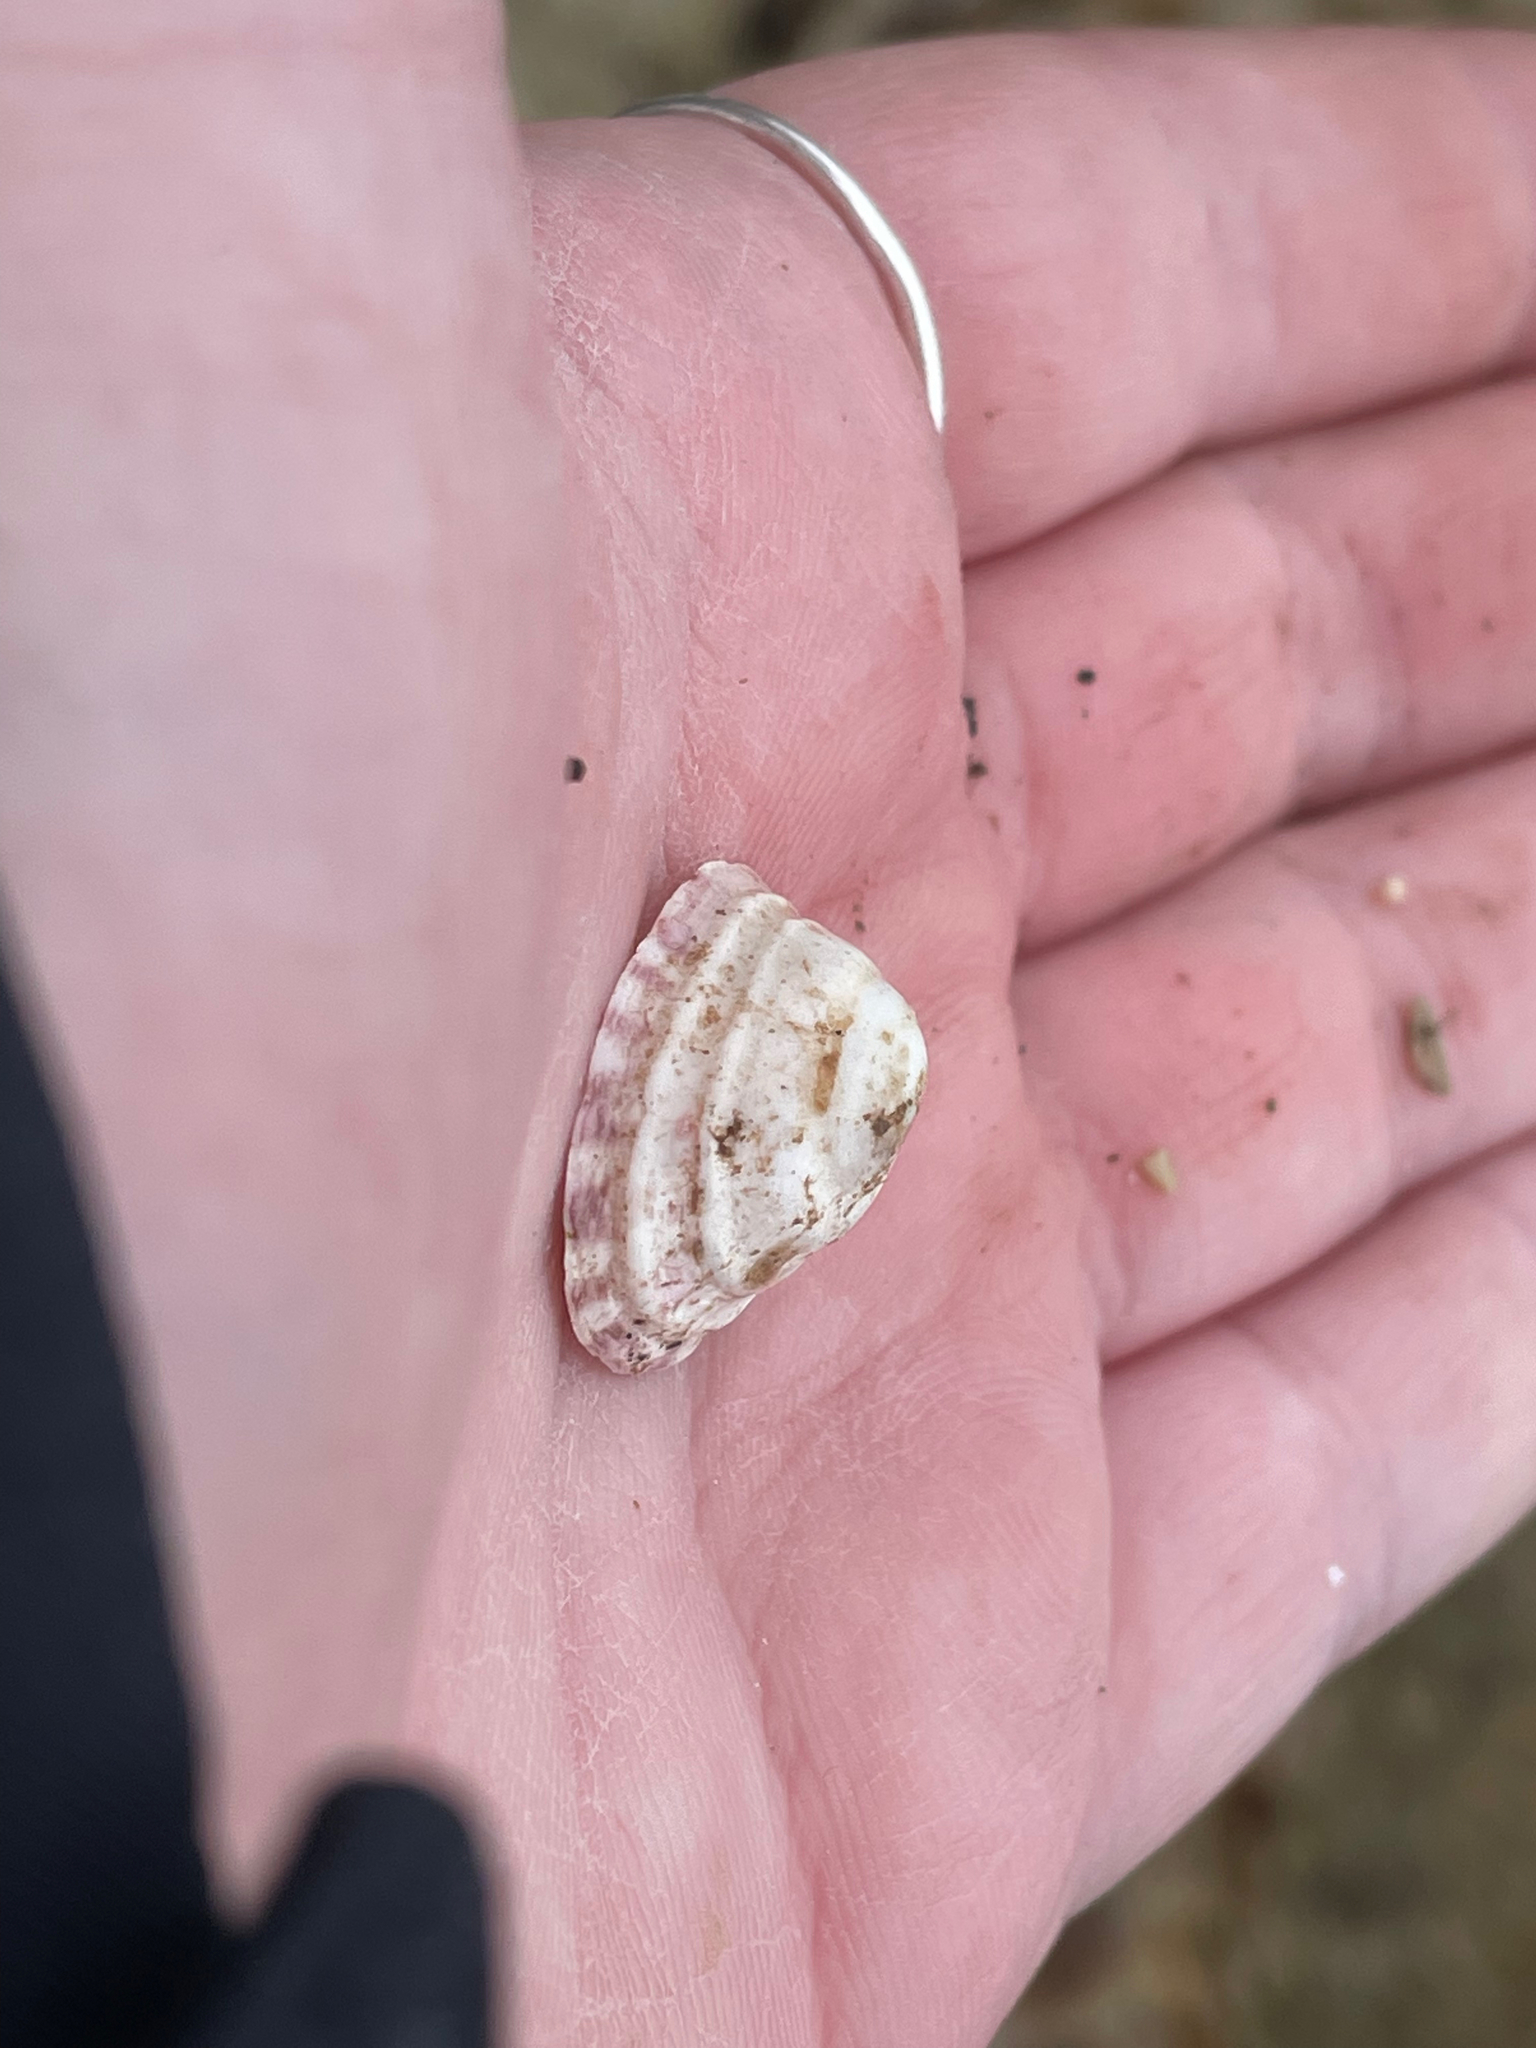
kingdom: Animalia
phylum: Mollusca
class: Gastropoda
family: Lottiidae
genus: Testudinalia
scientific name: Testudinalia testudinalis
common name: Common tortoiseshell limpet
